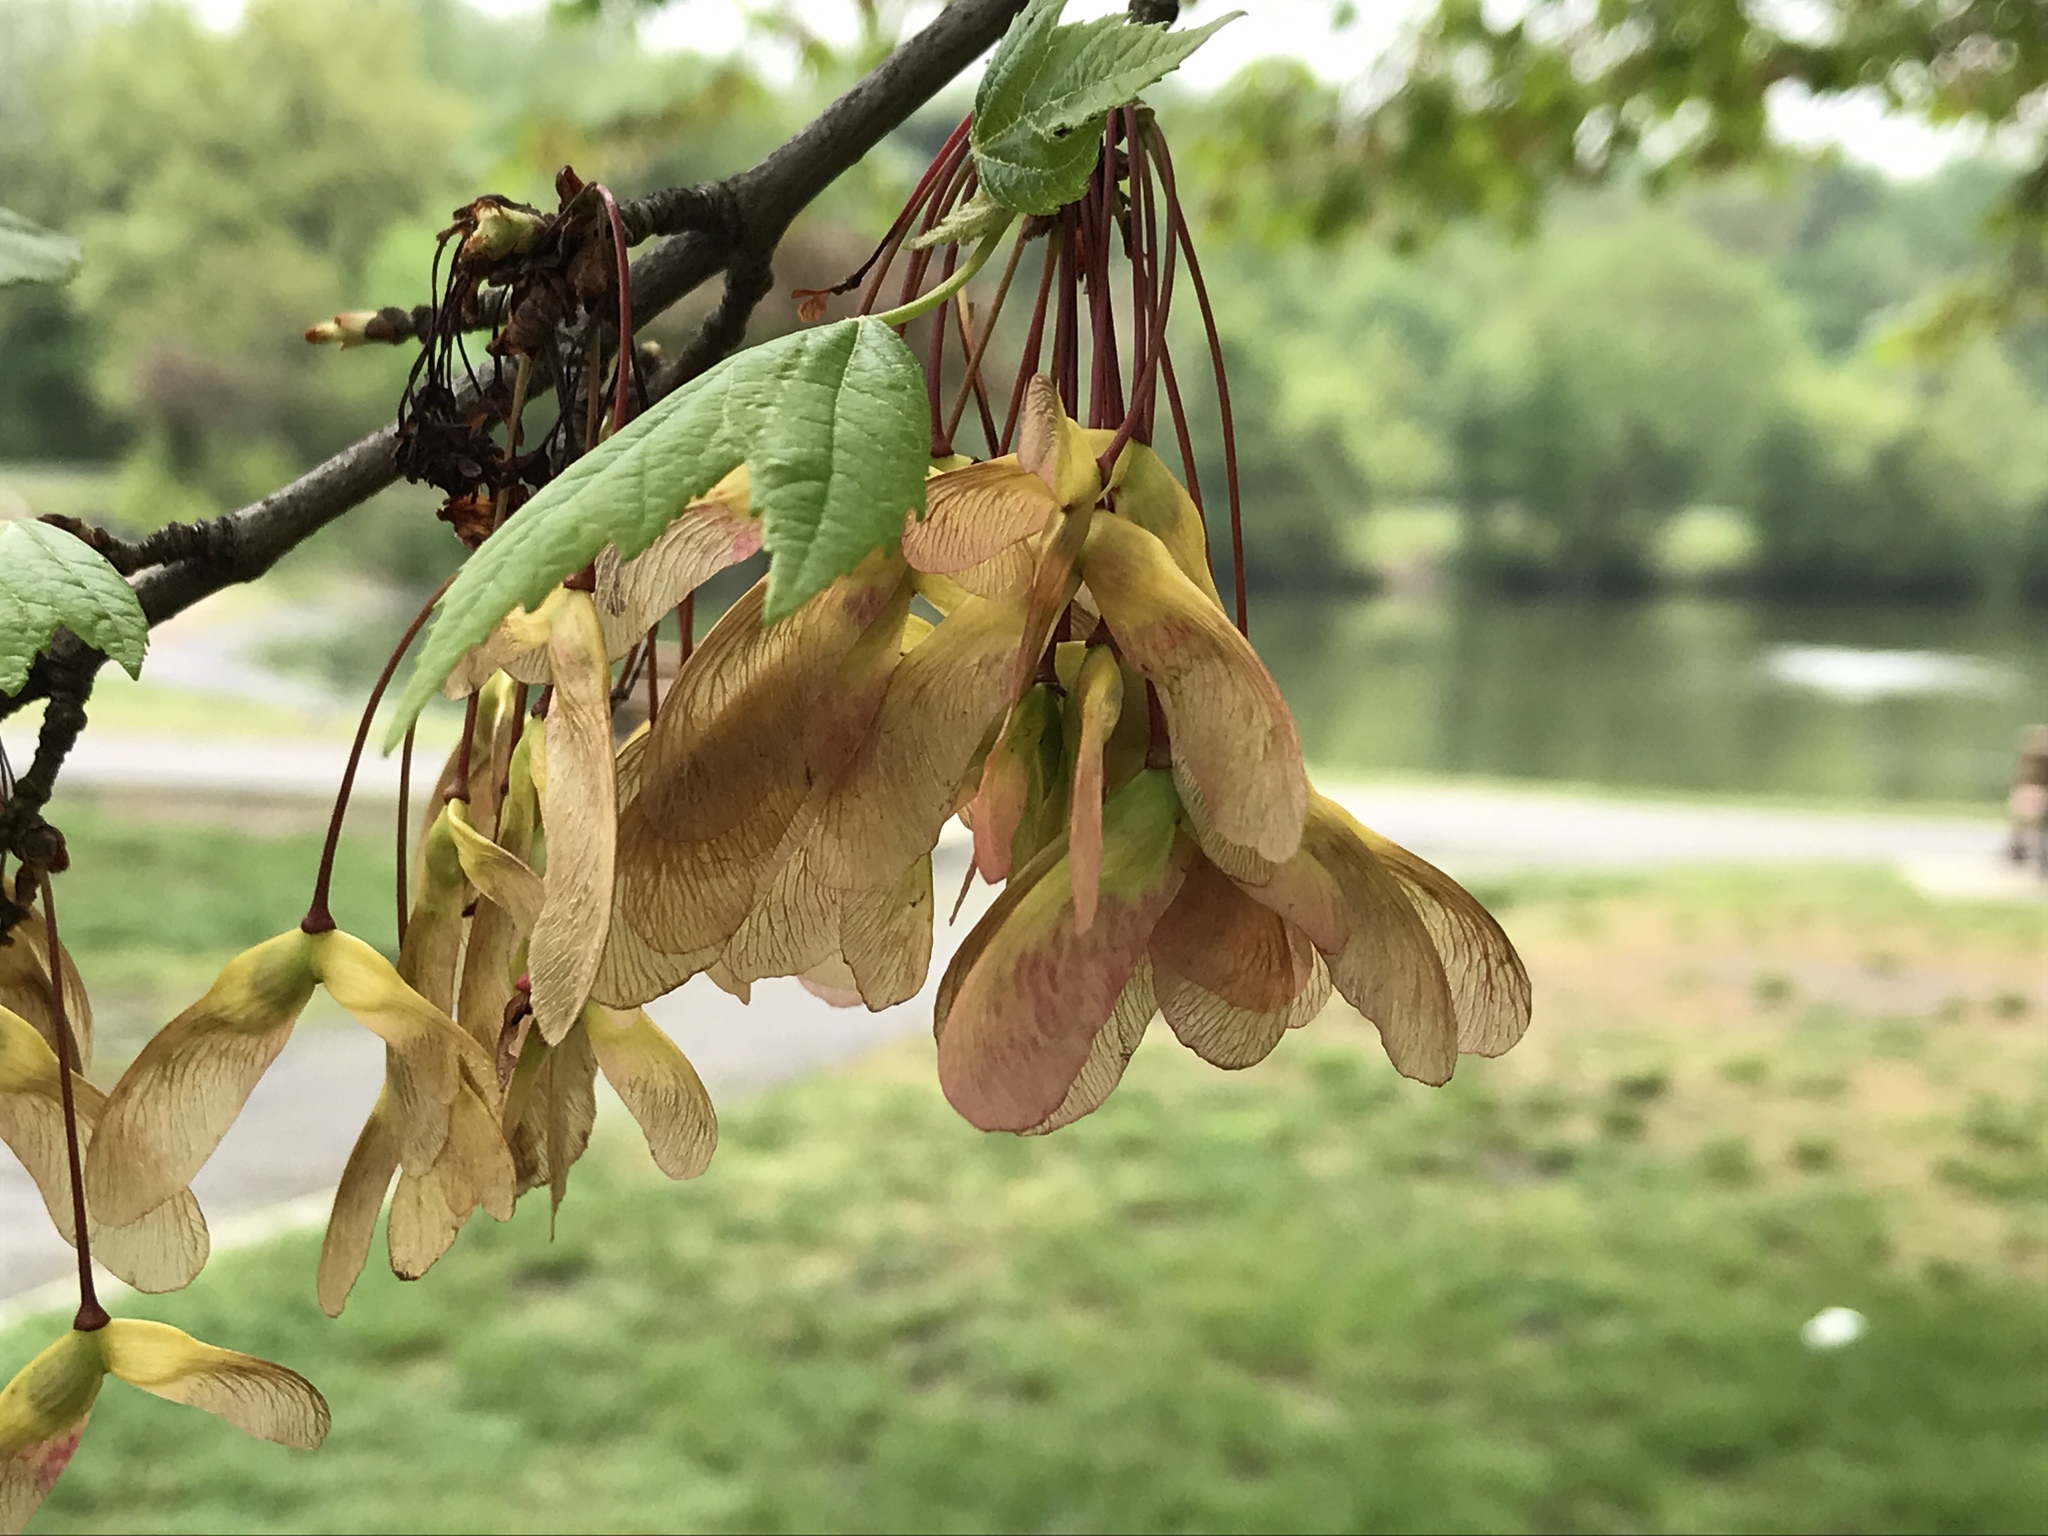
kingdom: Plantae
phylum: Tracheophyta
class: Magnoliopsida
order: Sapindales
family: Sapindaceae
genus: Acer
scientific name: Acer rubrum
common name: Red maple
